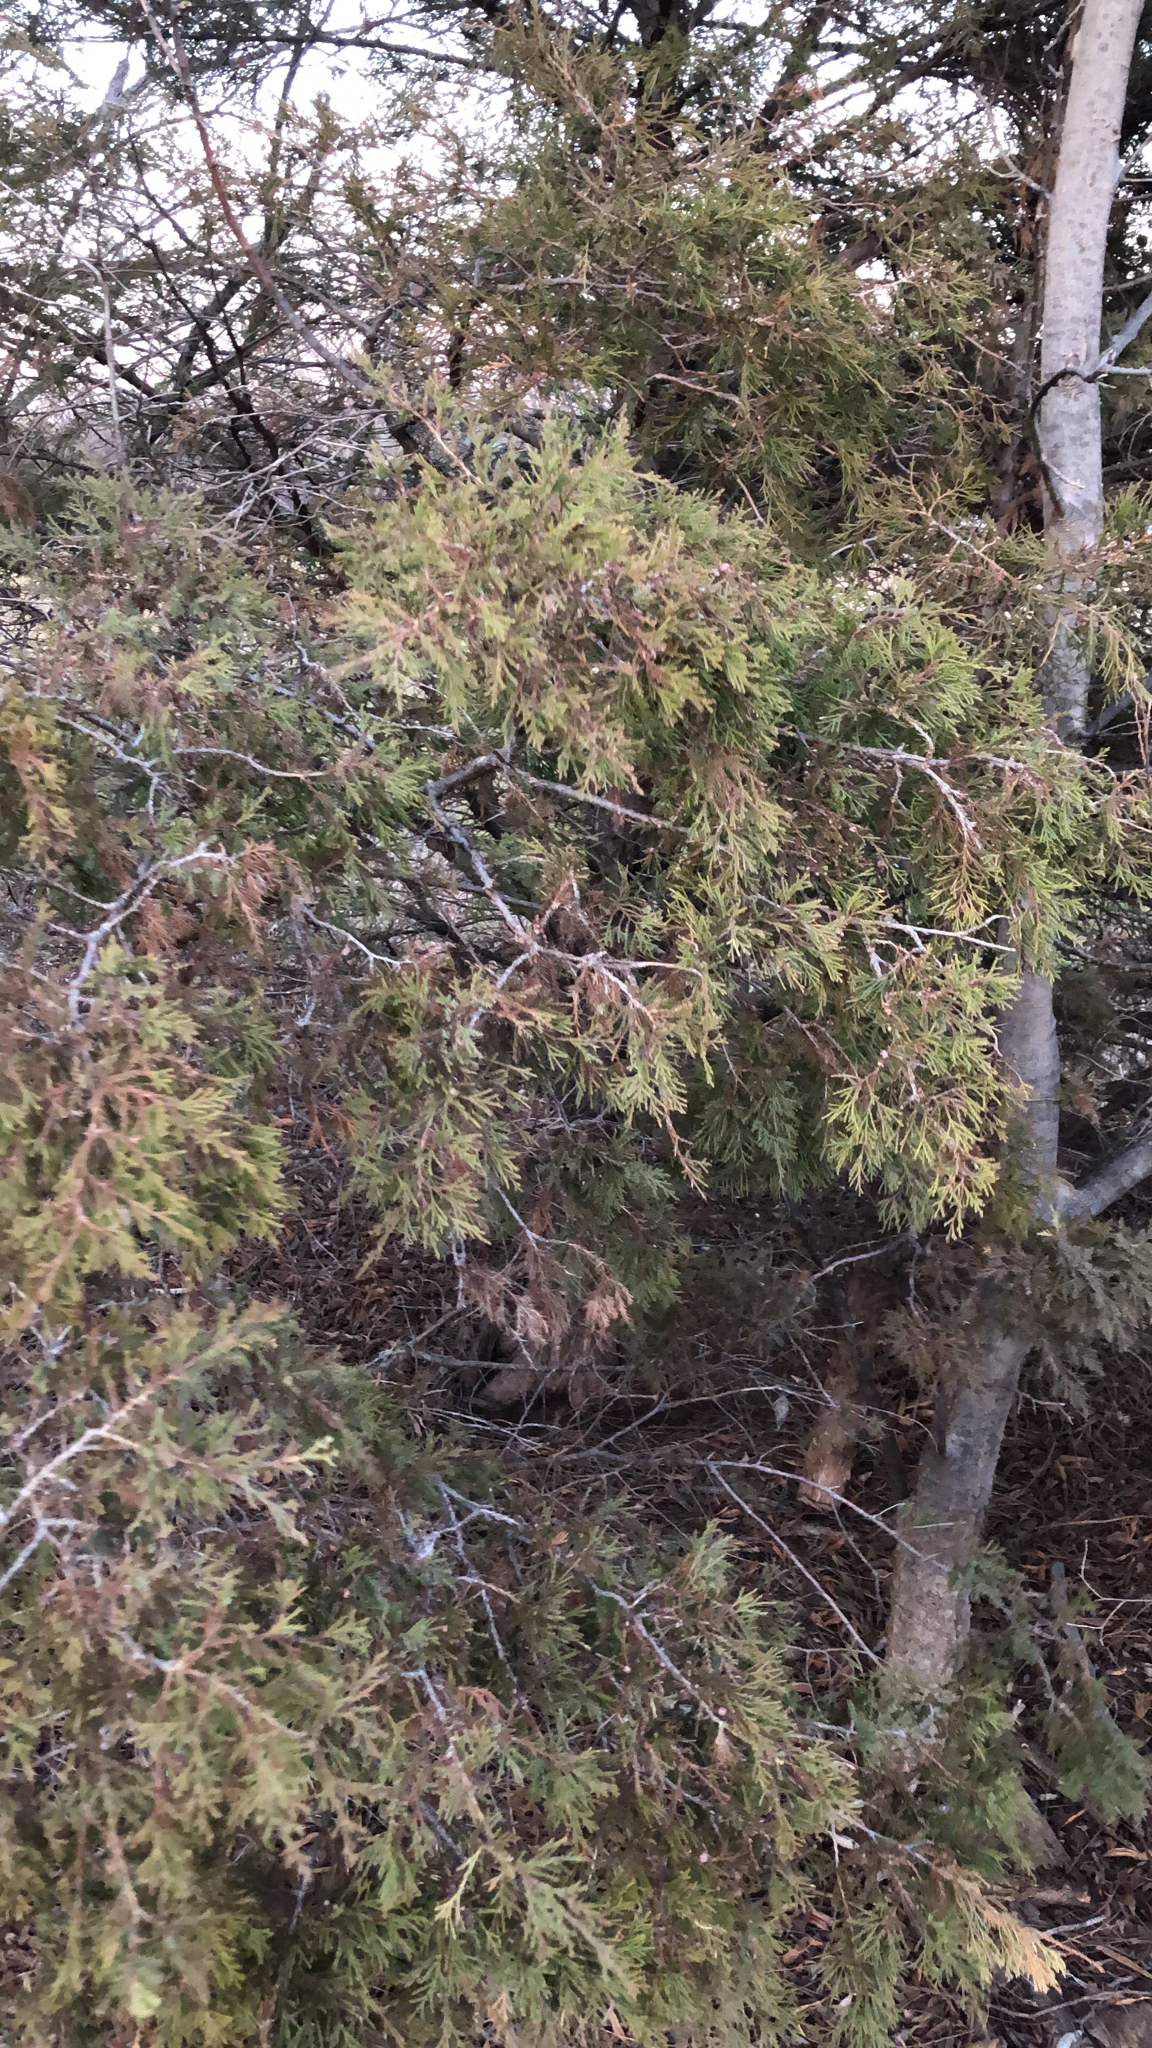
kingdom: Plantae
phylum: Tracheophyta
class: Pinopsida
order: Pinales
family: Cupressaceae
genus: Juniperus
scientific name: Juniperus virginiana
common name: Red juniper
